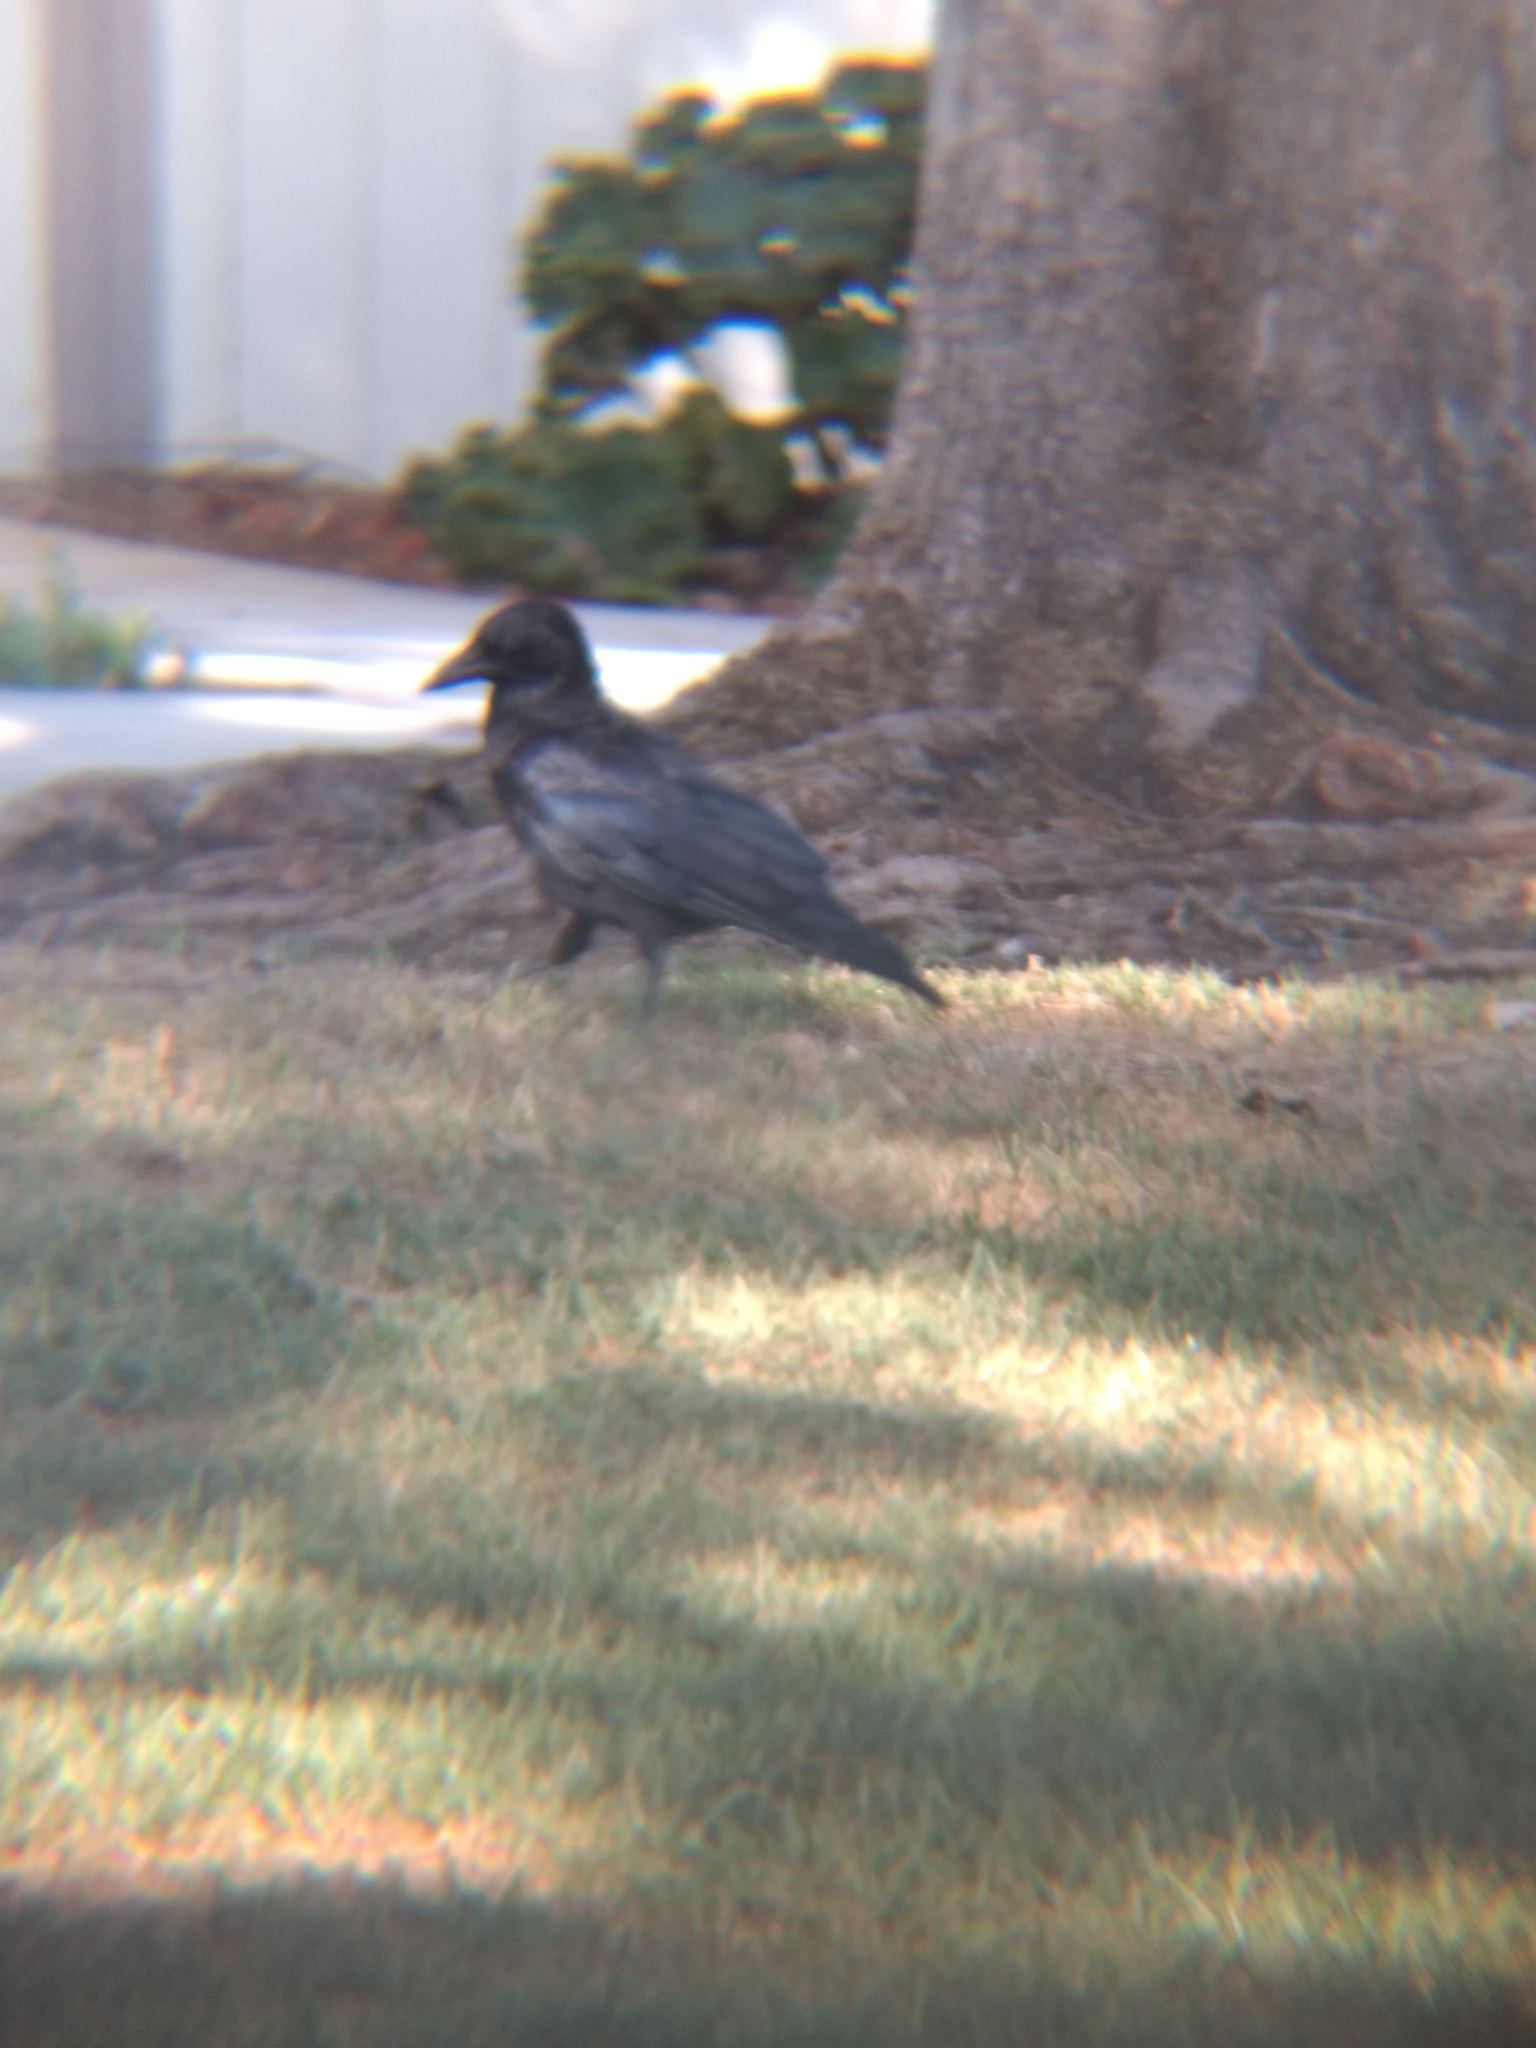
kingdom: Animalia
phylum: Chordata
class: Aves
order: Passeriformes
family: Corvidae
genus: Corvus
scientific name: Corvus brachyrhynchos
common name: American crow
